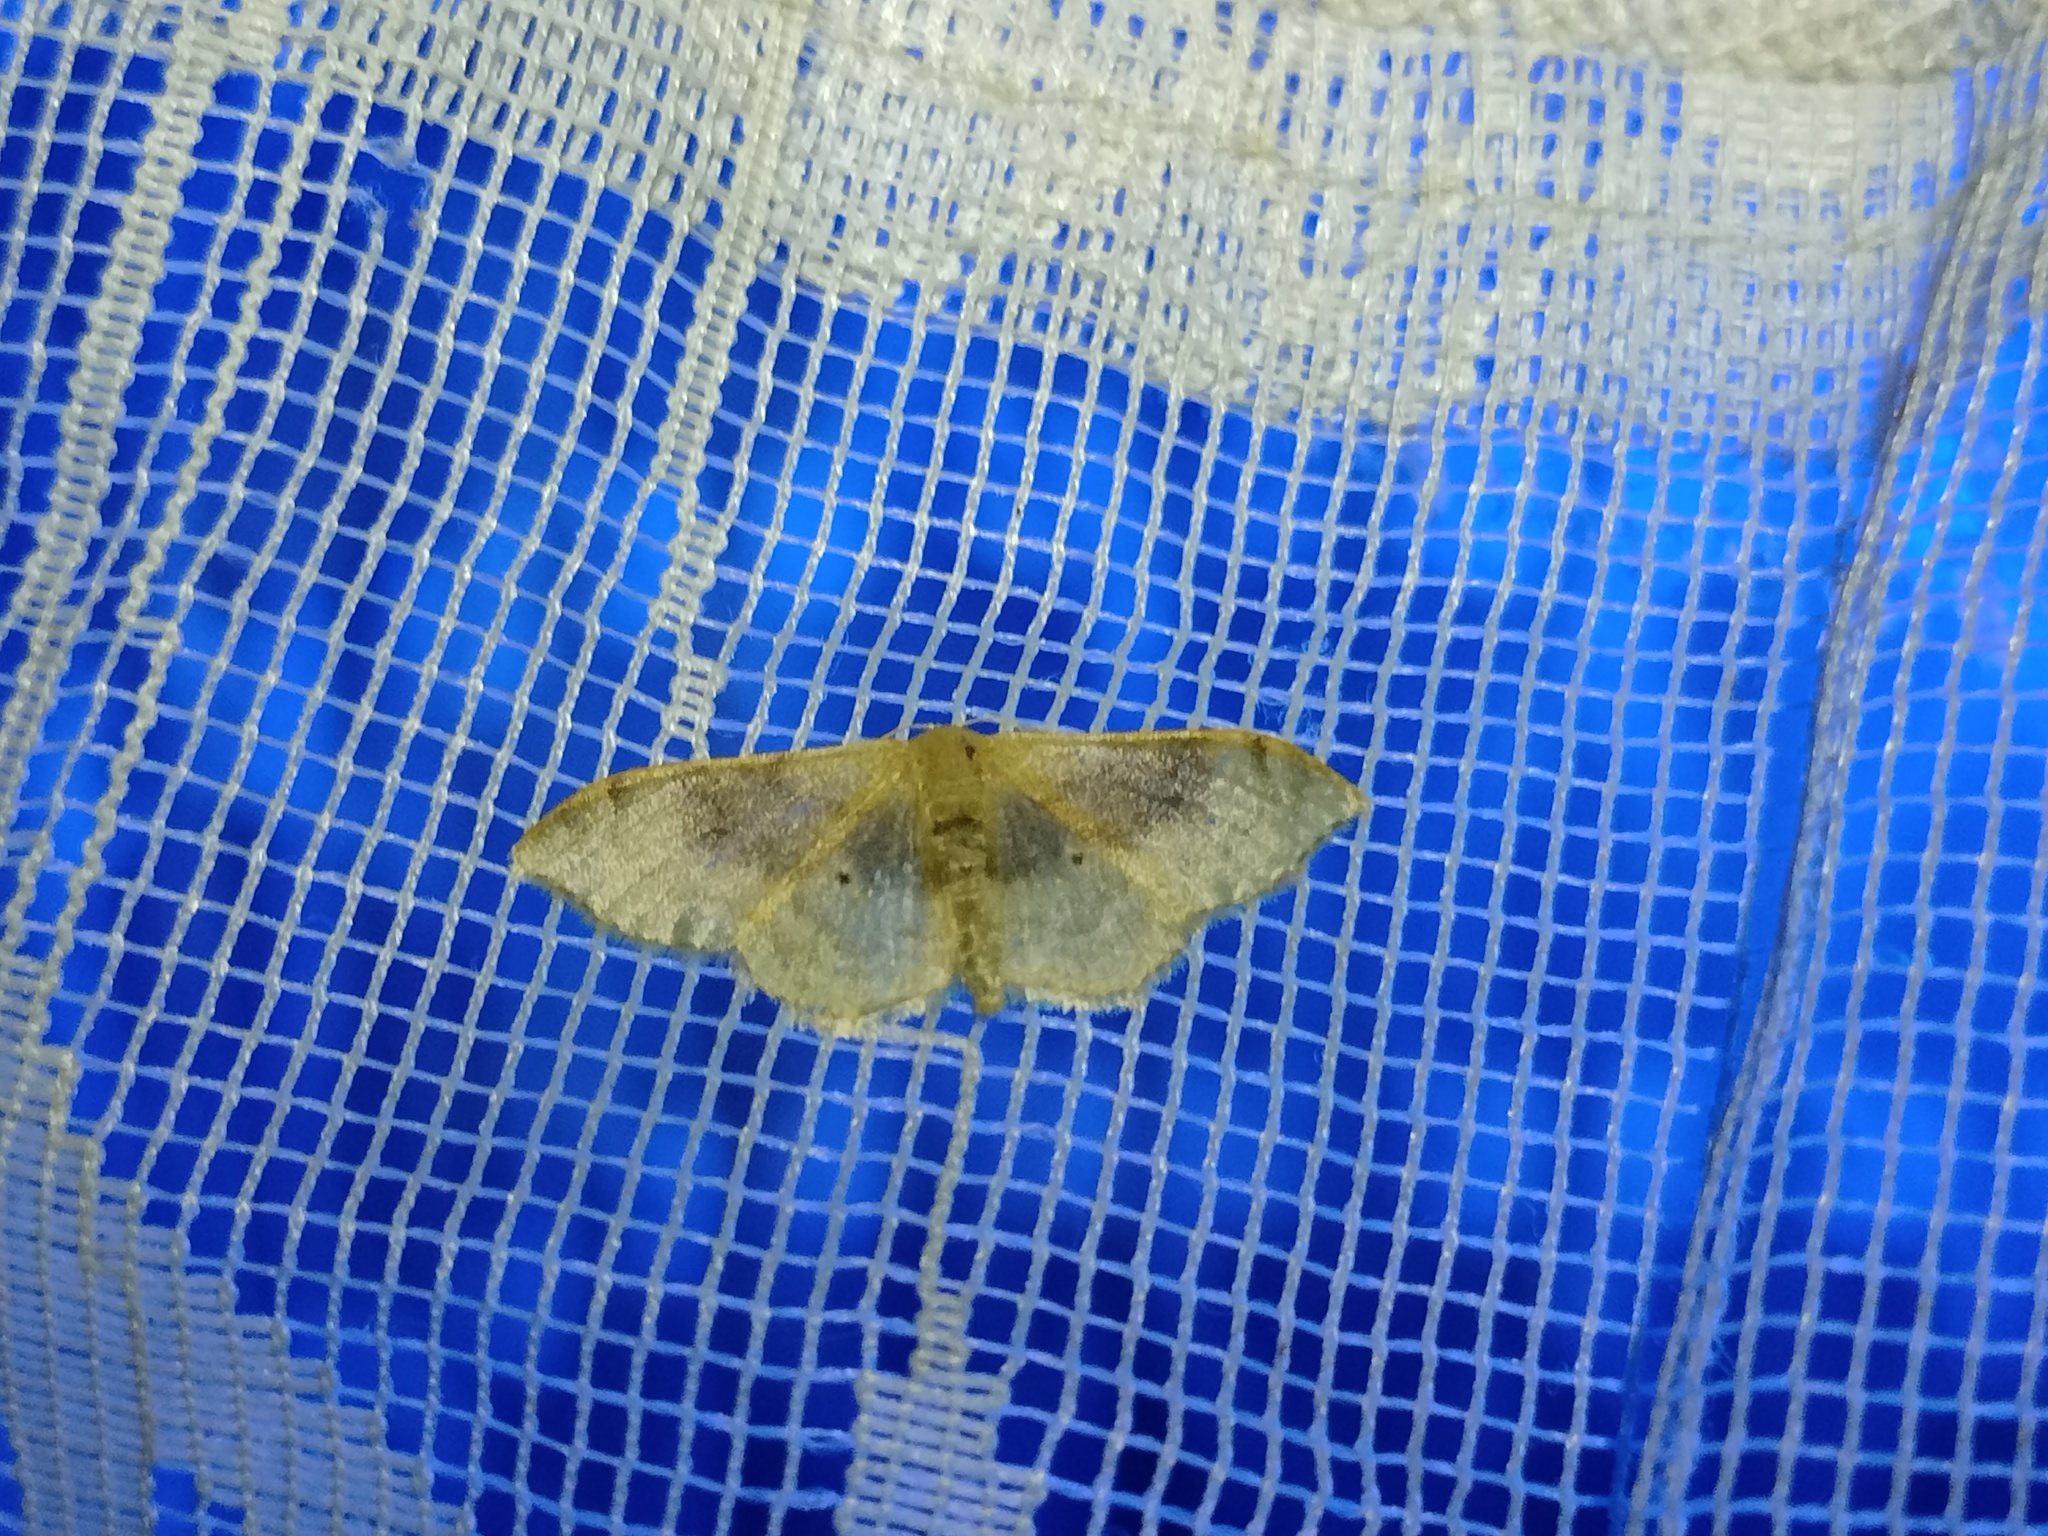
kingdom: Animalia
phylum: Arthropoda
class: Insecta
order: Lepidoptera
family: Geometridae
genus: Idaea
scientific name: Idaea degeneraria
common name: Portland ribbon wave
